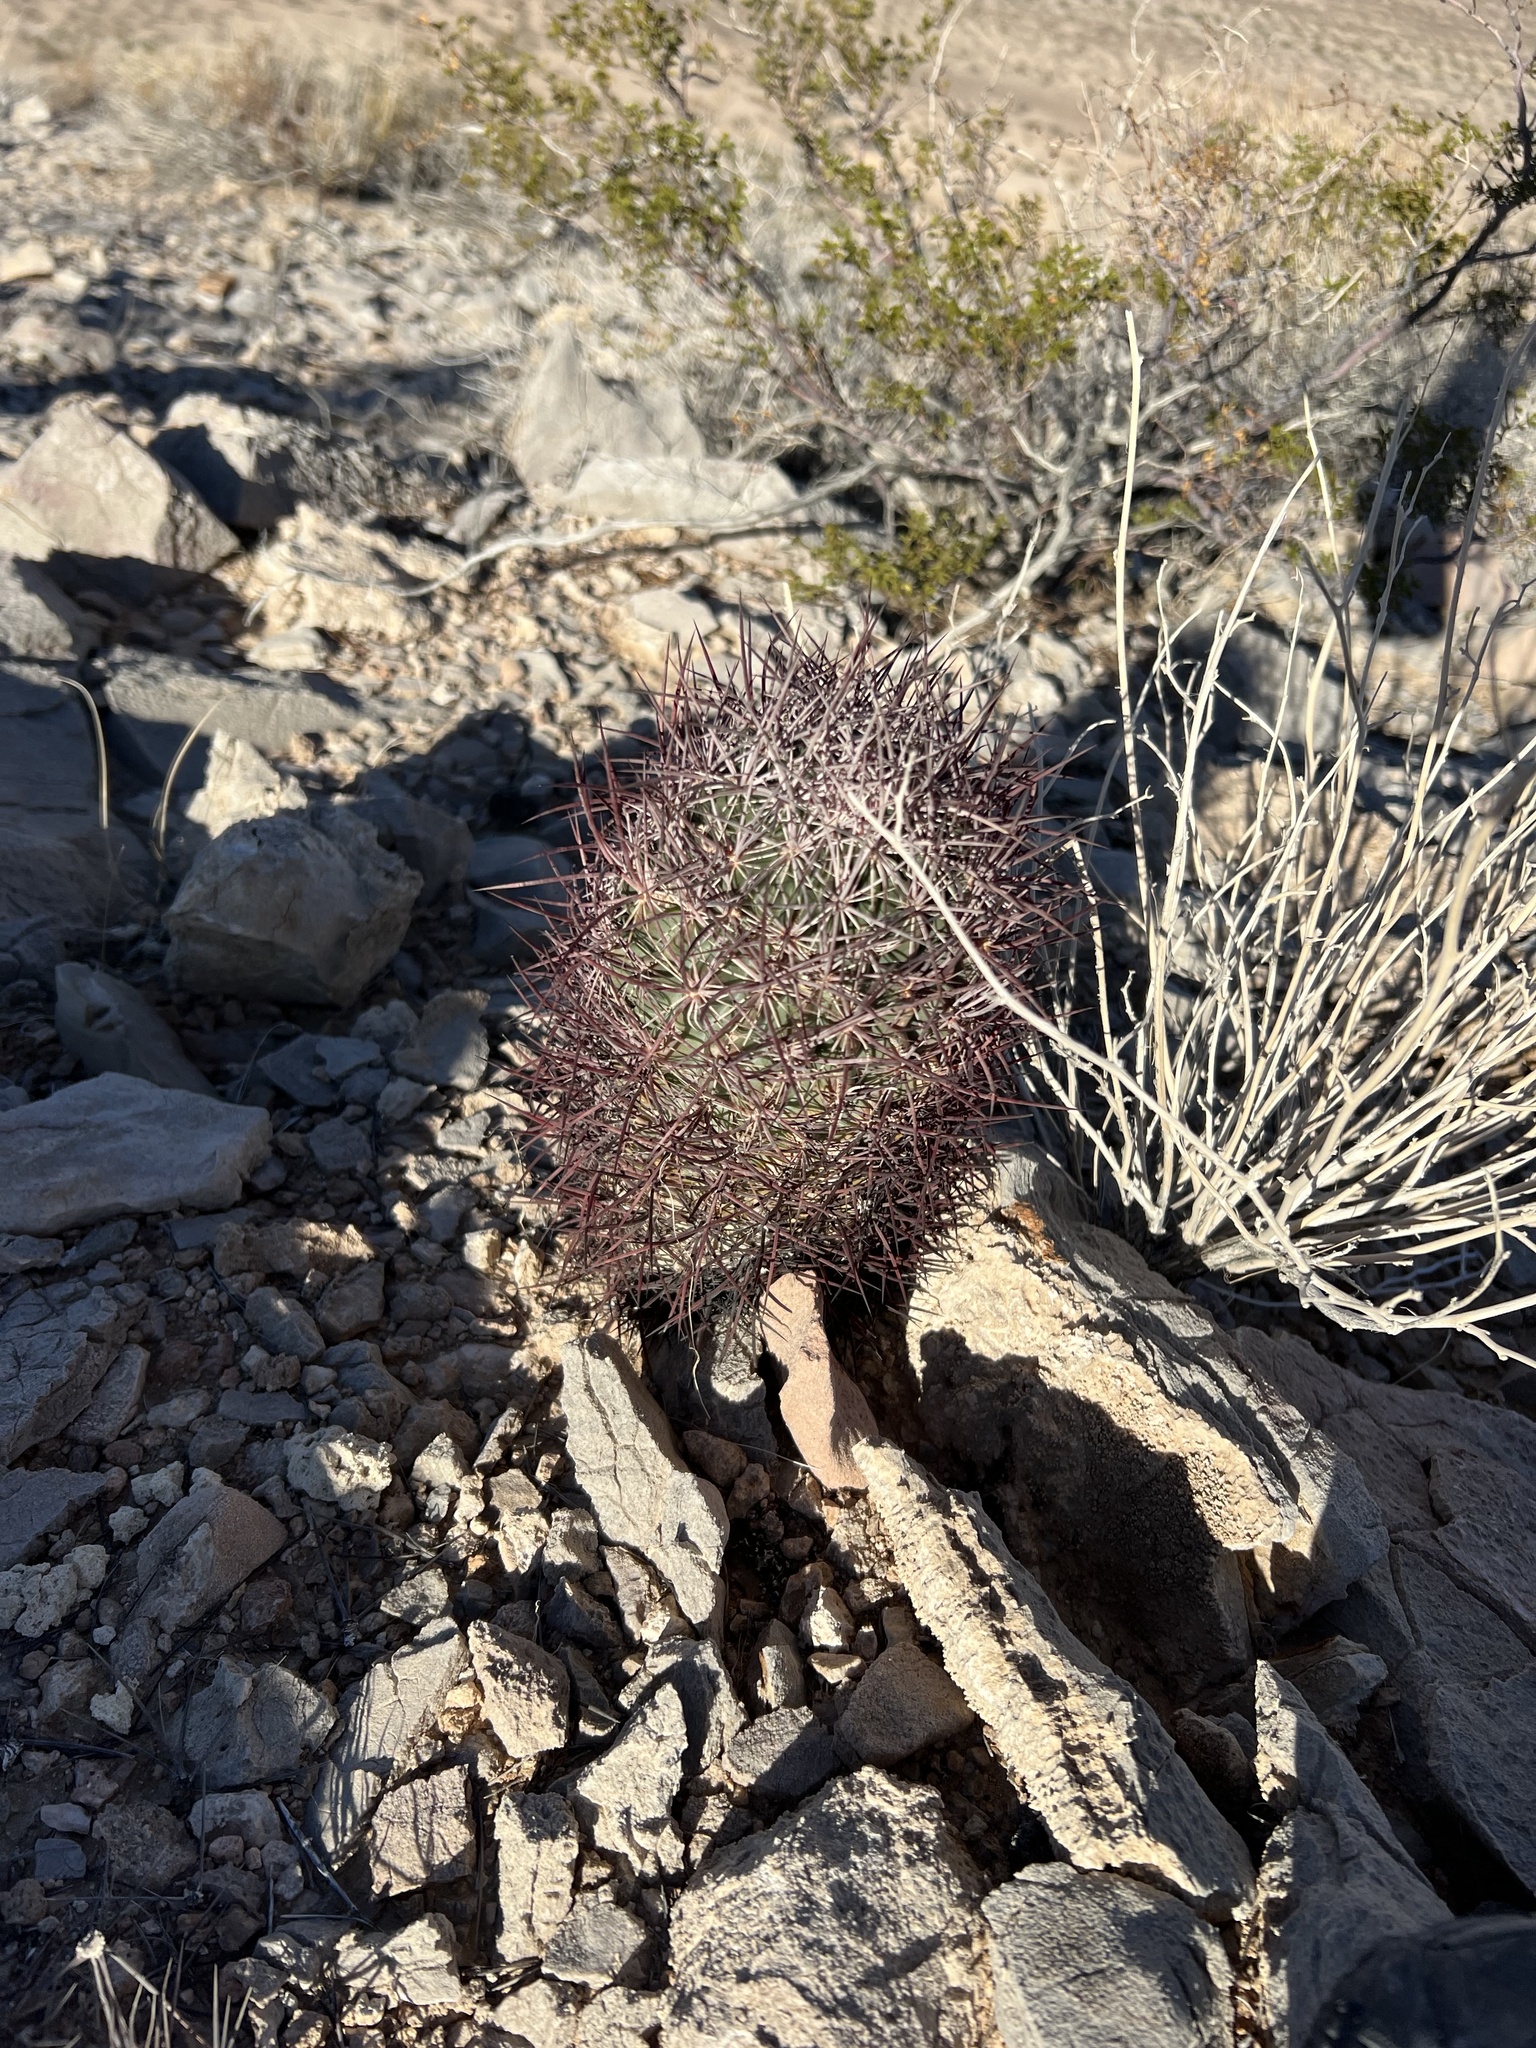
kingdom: Plantae
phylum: Tracheophyta
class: Magnoliopsida
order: Caryophyllales
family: Cactaceae
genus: Sclerocactus
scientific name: Sclerocactus johnsonii
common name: Eight-spine fishhook cactus
